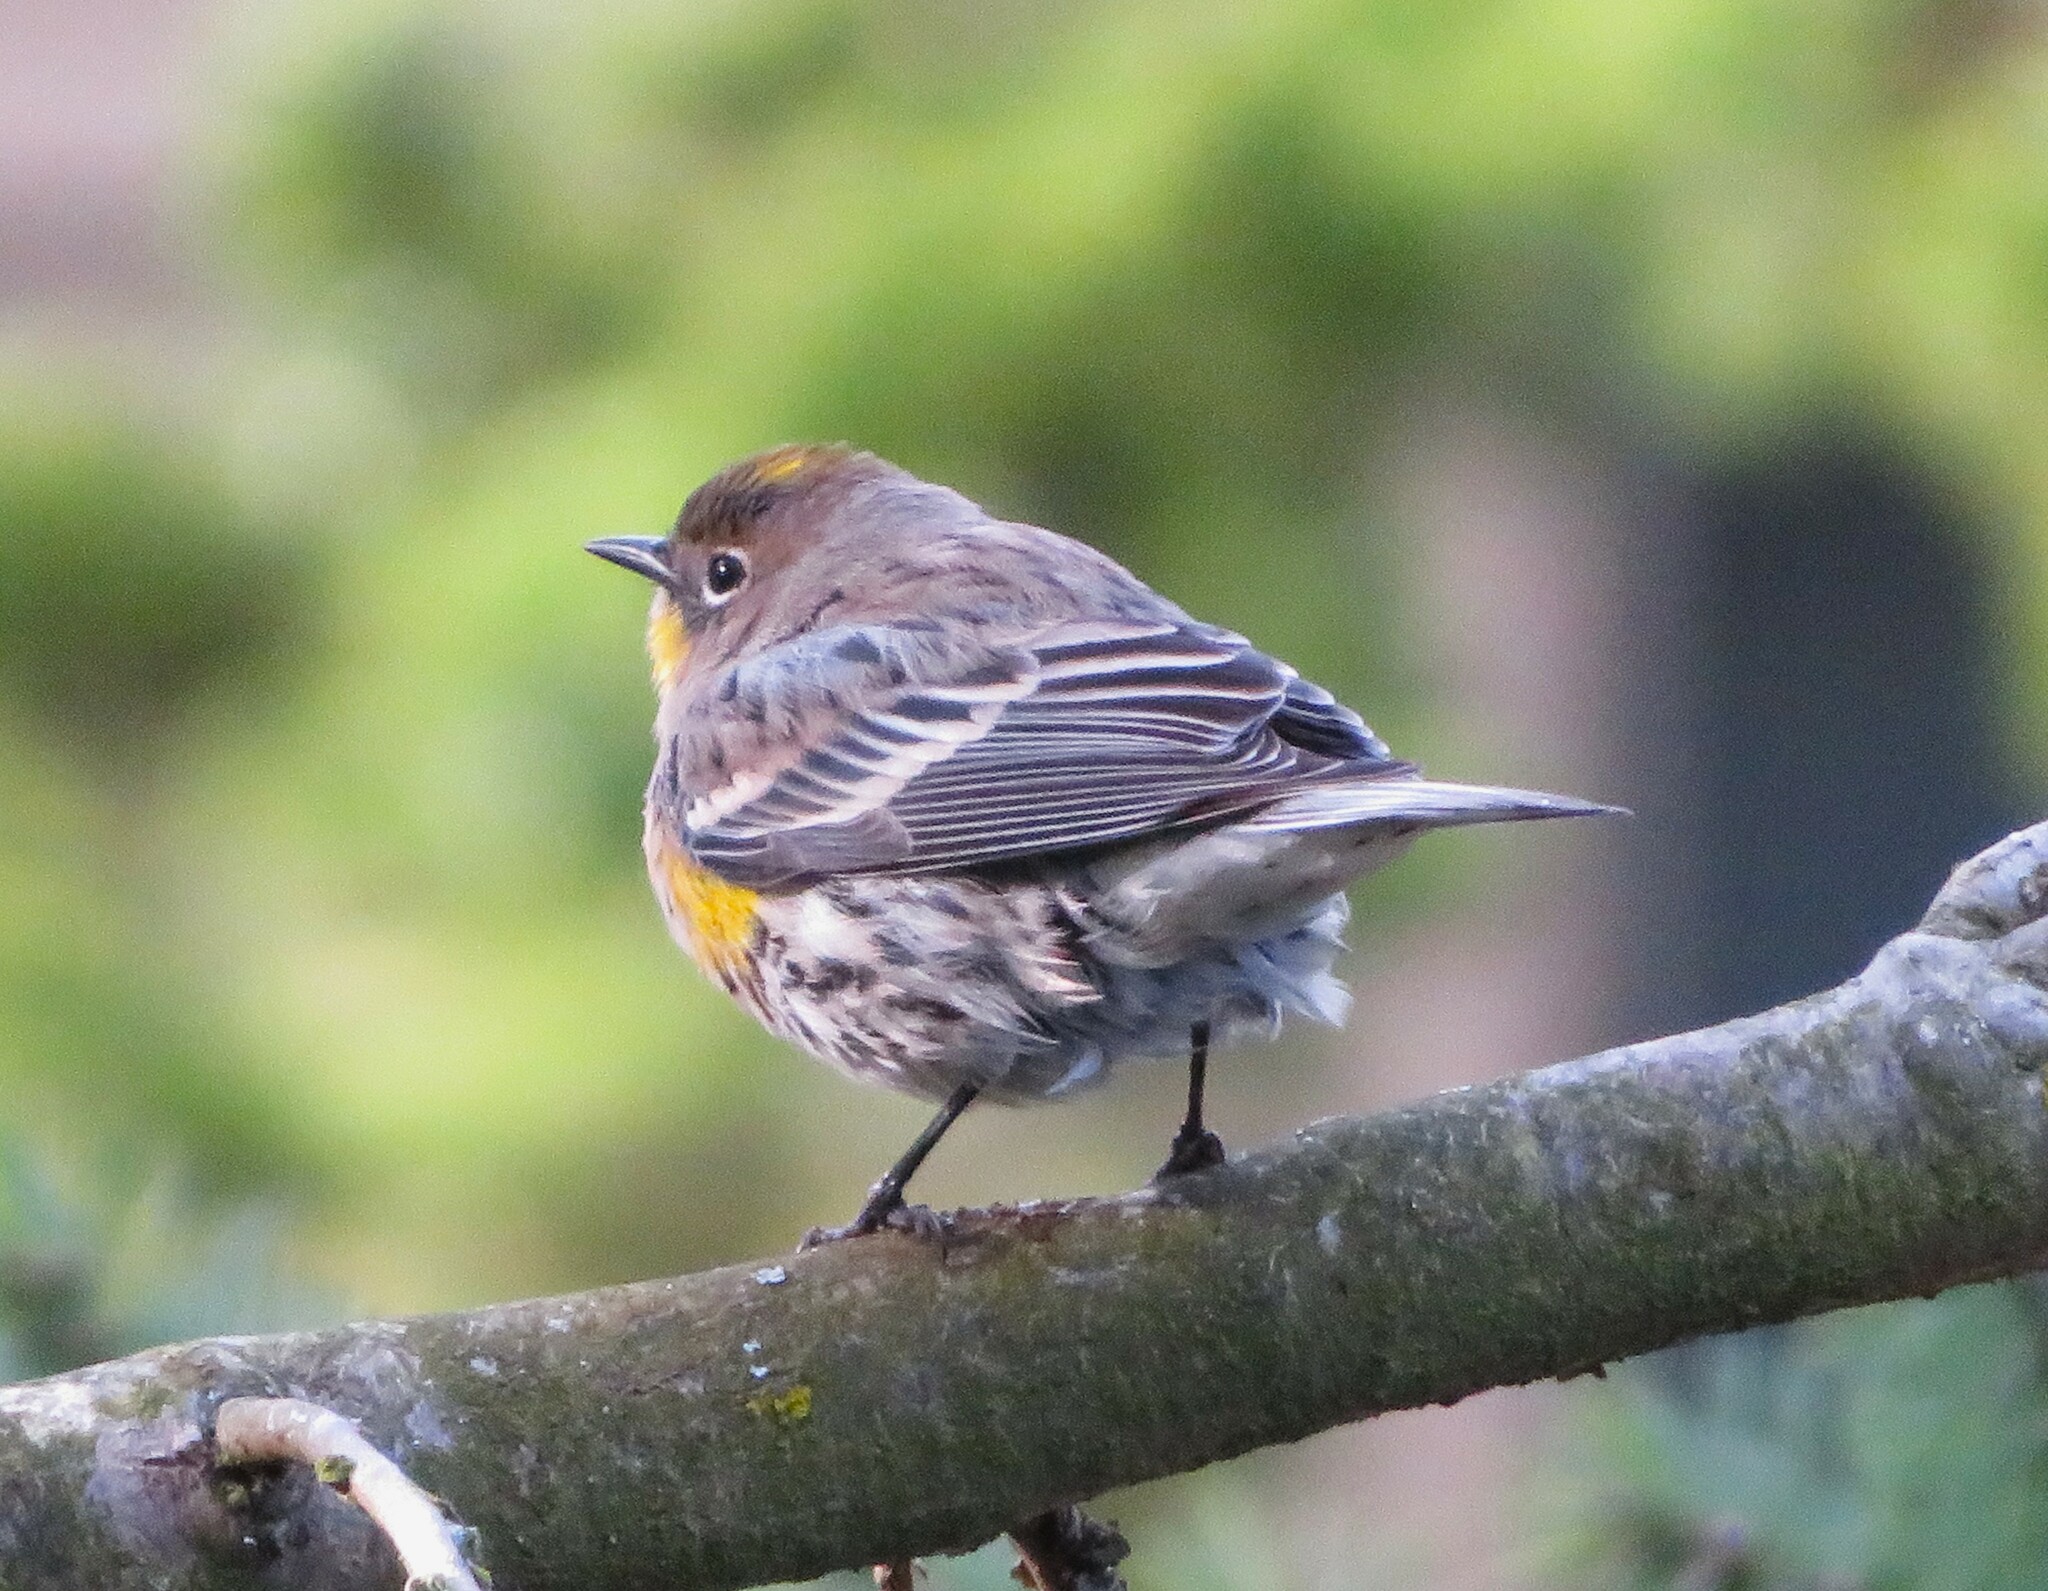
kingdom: Animalia
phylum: Chordata
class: Aves
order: Passeriformes
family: Parulidae
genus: Setophaga
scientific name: Setophaga auduboni
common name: Audubon's warbler
